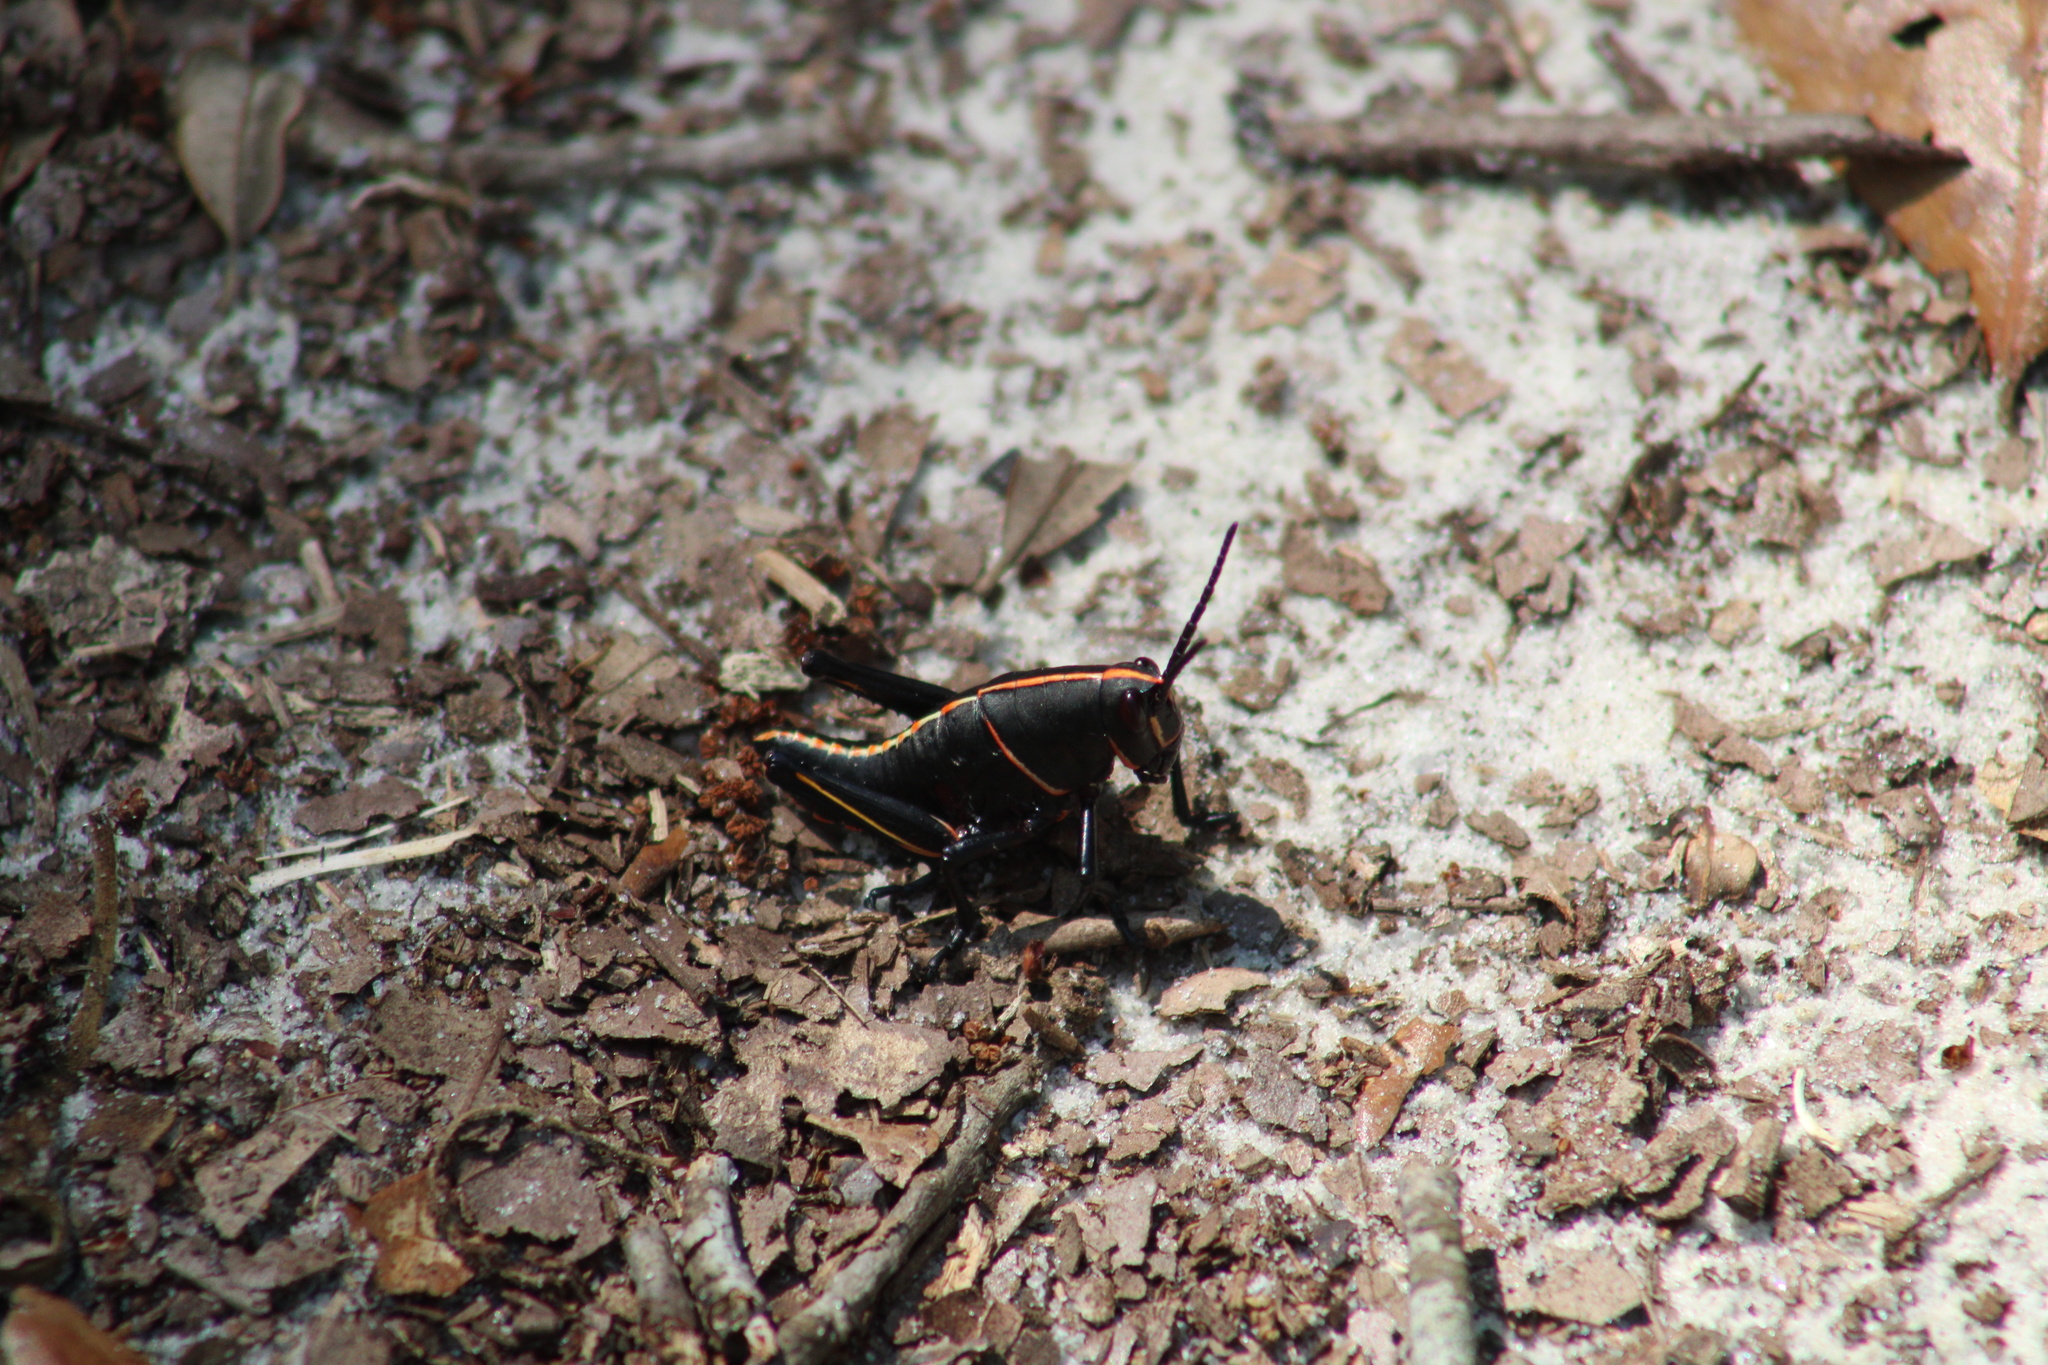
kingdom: Animalia
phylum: Arthropoda
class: Insecta
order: Orthoptera
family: Romaleidae
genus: Romalea
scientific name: Romalea microptera
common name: Eastern lubber grasshopper
